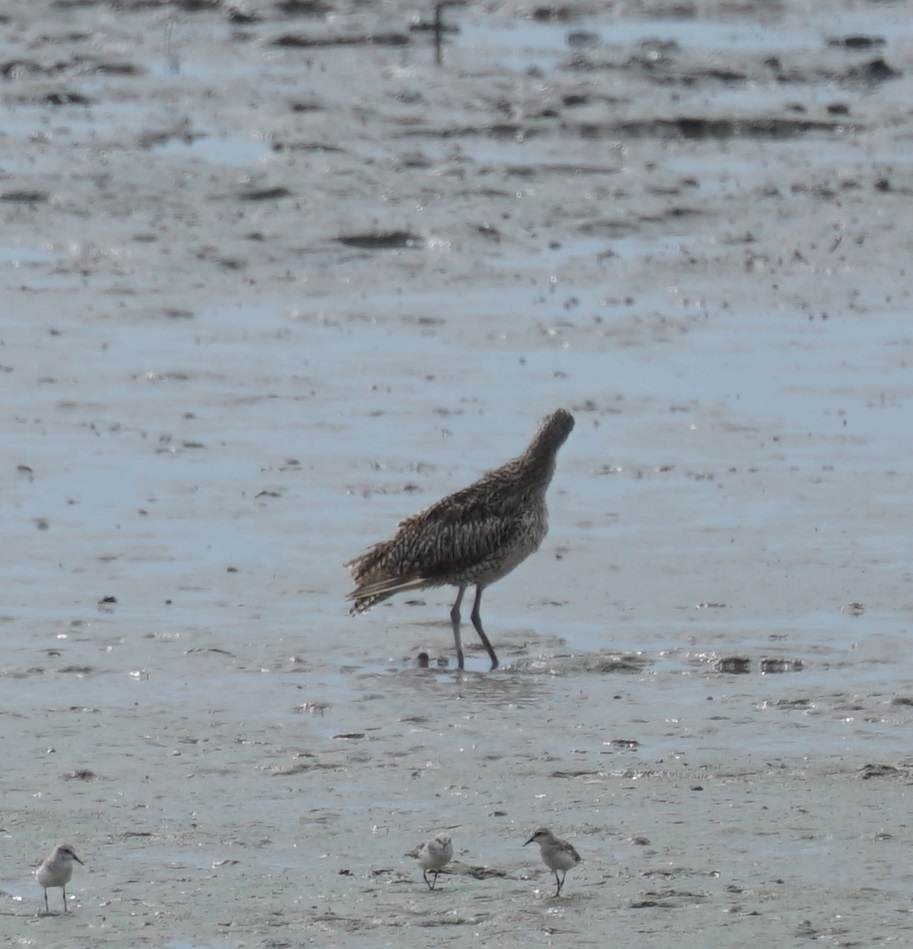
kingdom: Animalia
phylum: Chordata
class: Aves
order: Charadriiformes
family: Scolopacidae
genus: Numenius
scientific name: Numenius madagascariensis
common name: Far eastern curlew
